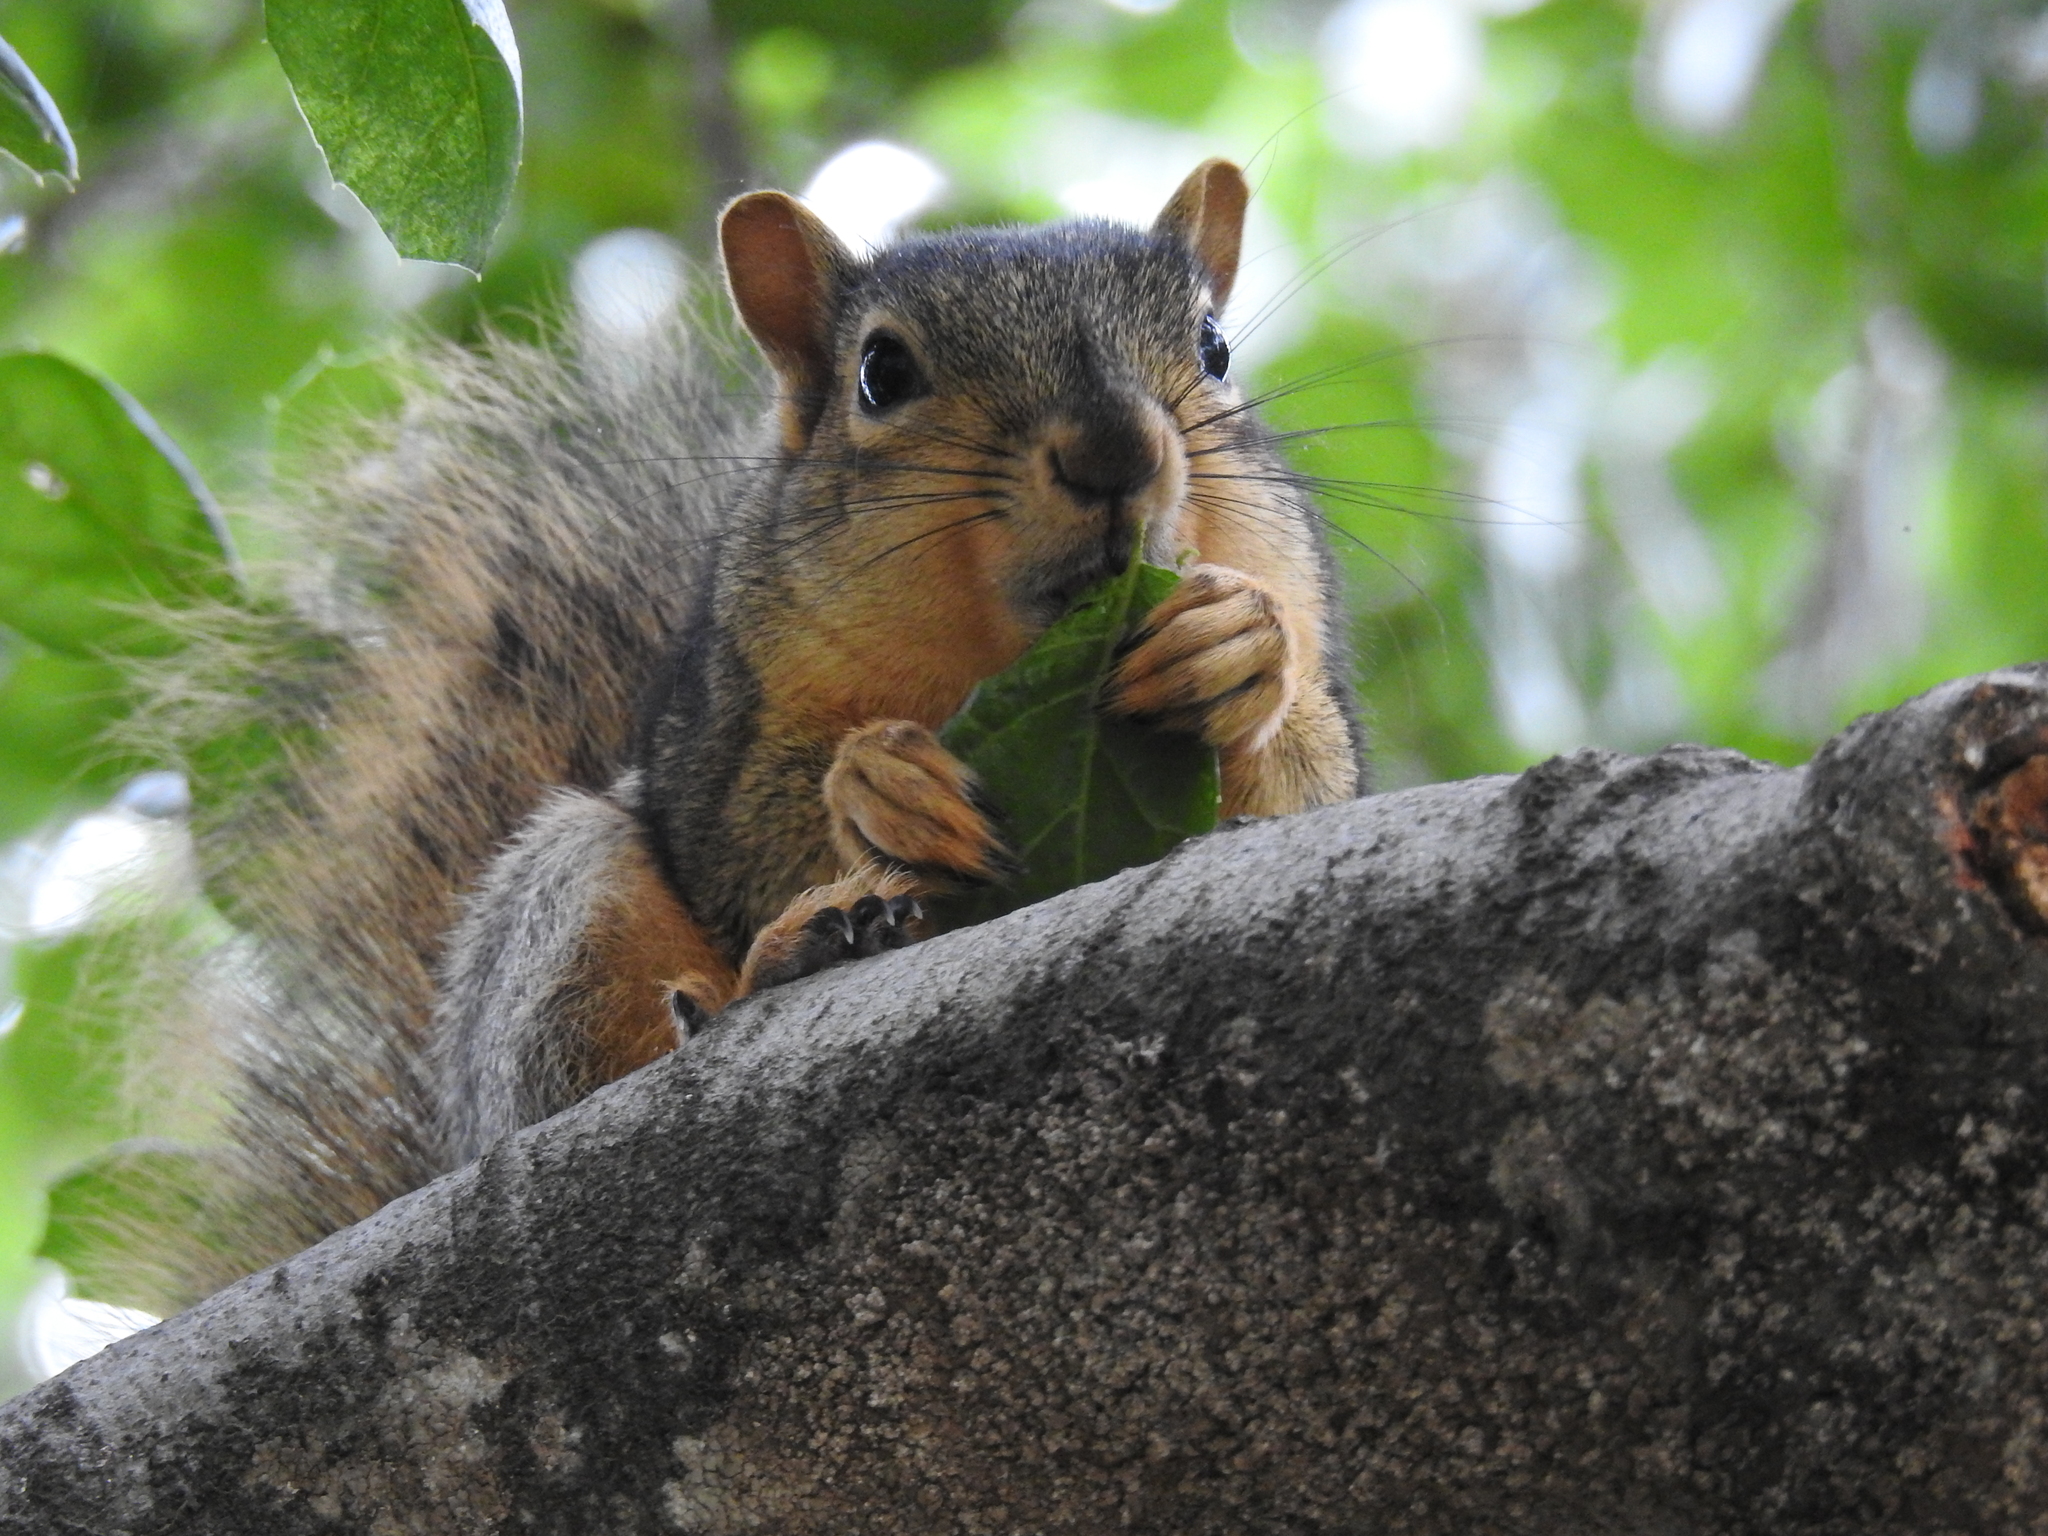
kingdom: Animalia
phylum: Chordata
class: Mammalia
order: Rodentia
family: Sciuridae
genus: Sciurus
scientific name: Sciurus niger
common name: Fox squirrel
